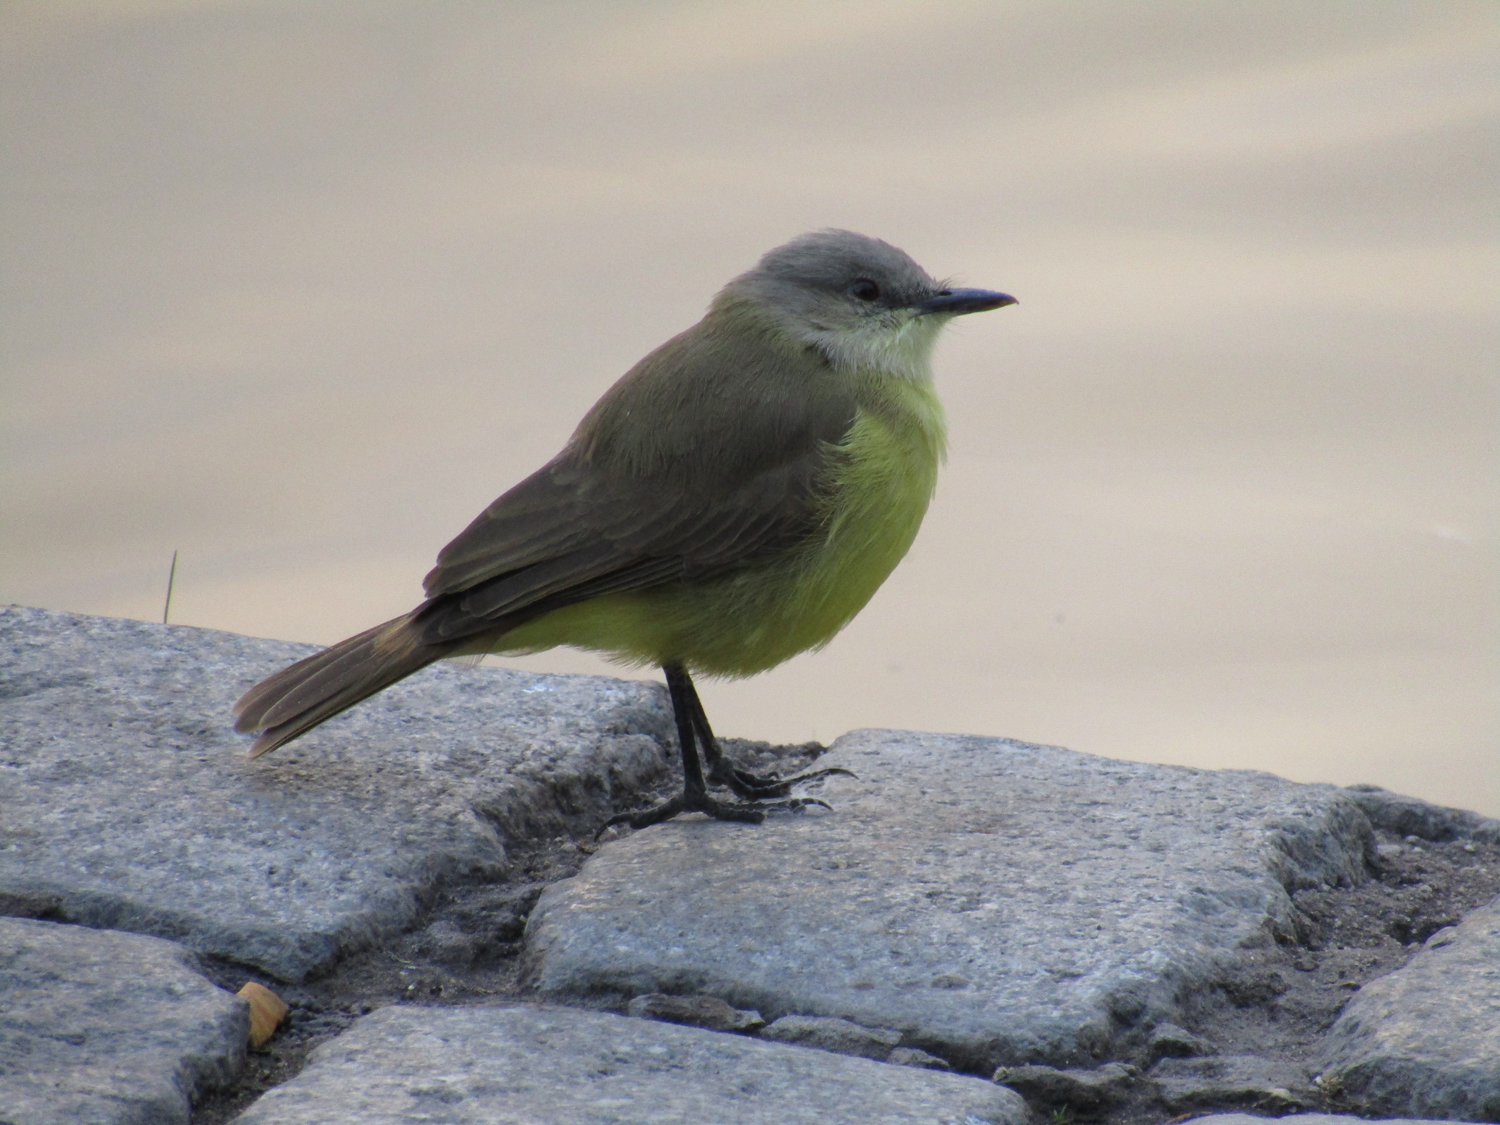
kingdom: Animalia
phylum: Chordata
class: Aves
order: Passeriformes
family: Tyrannidae
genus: Machetornis
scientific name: Machetornis rixosa
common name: Cattle tyrant
